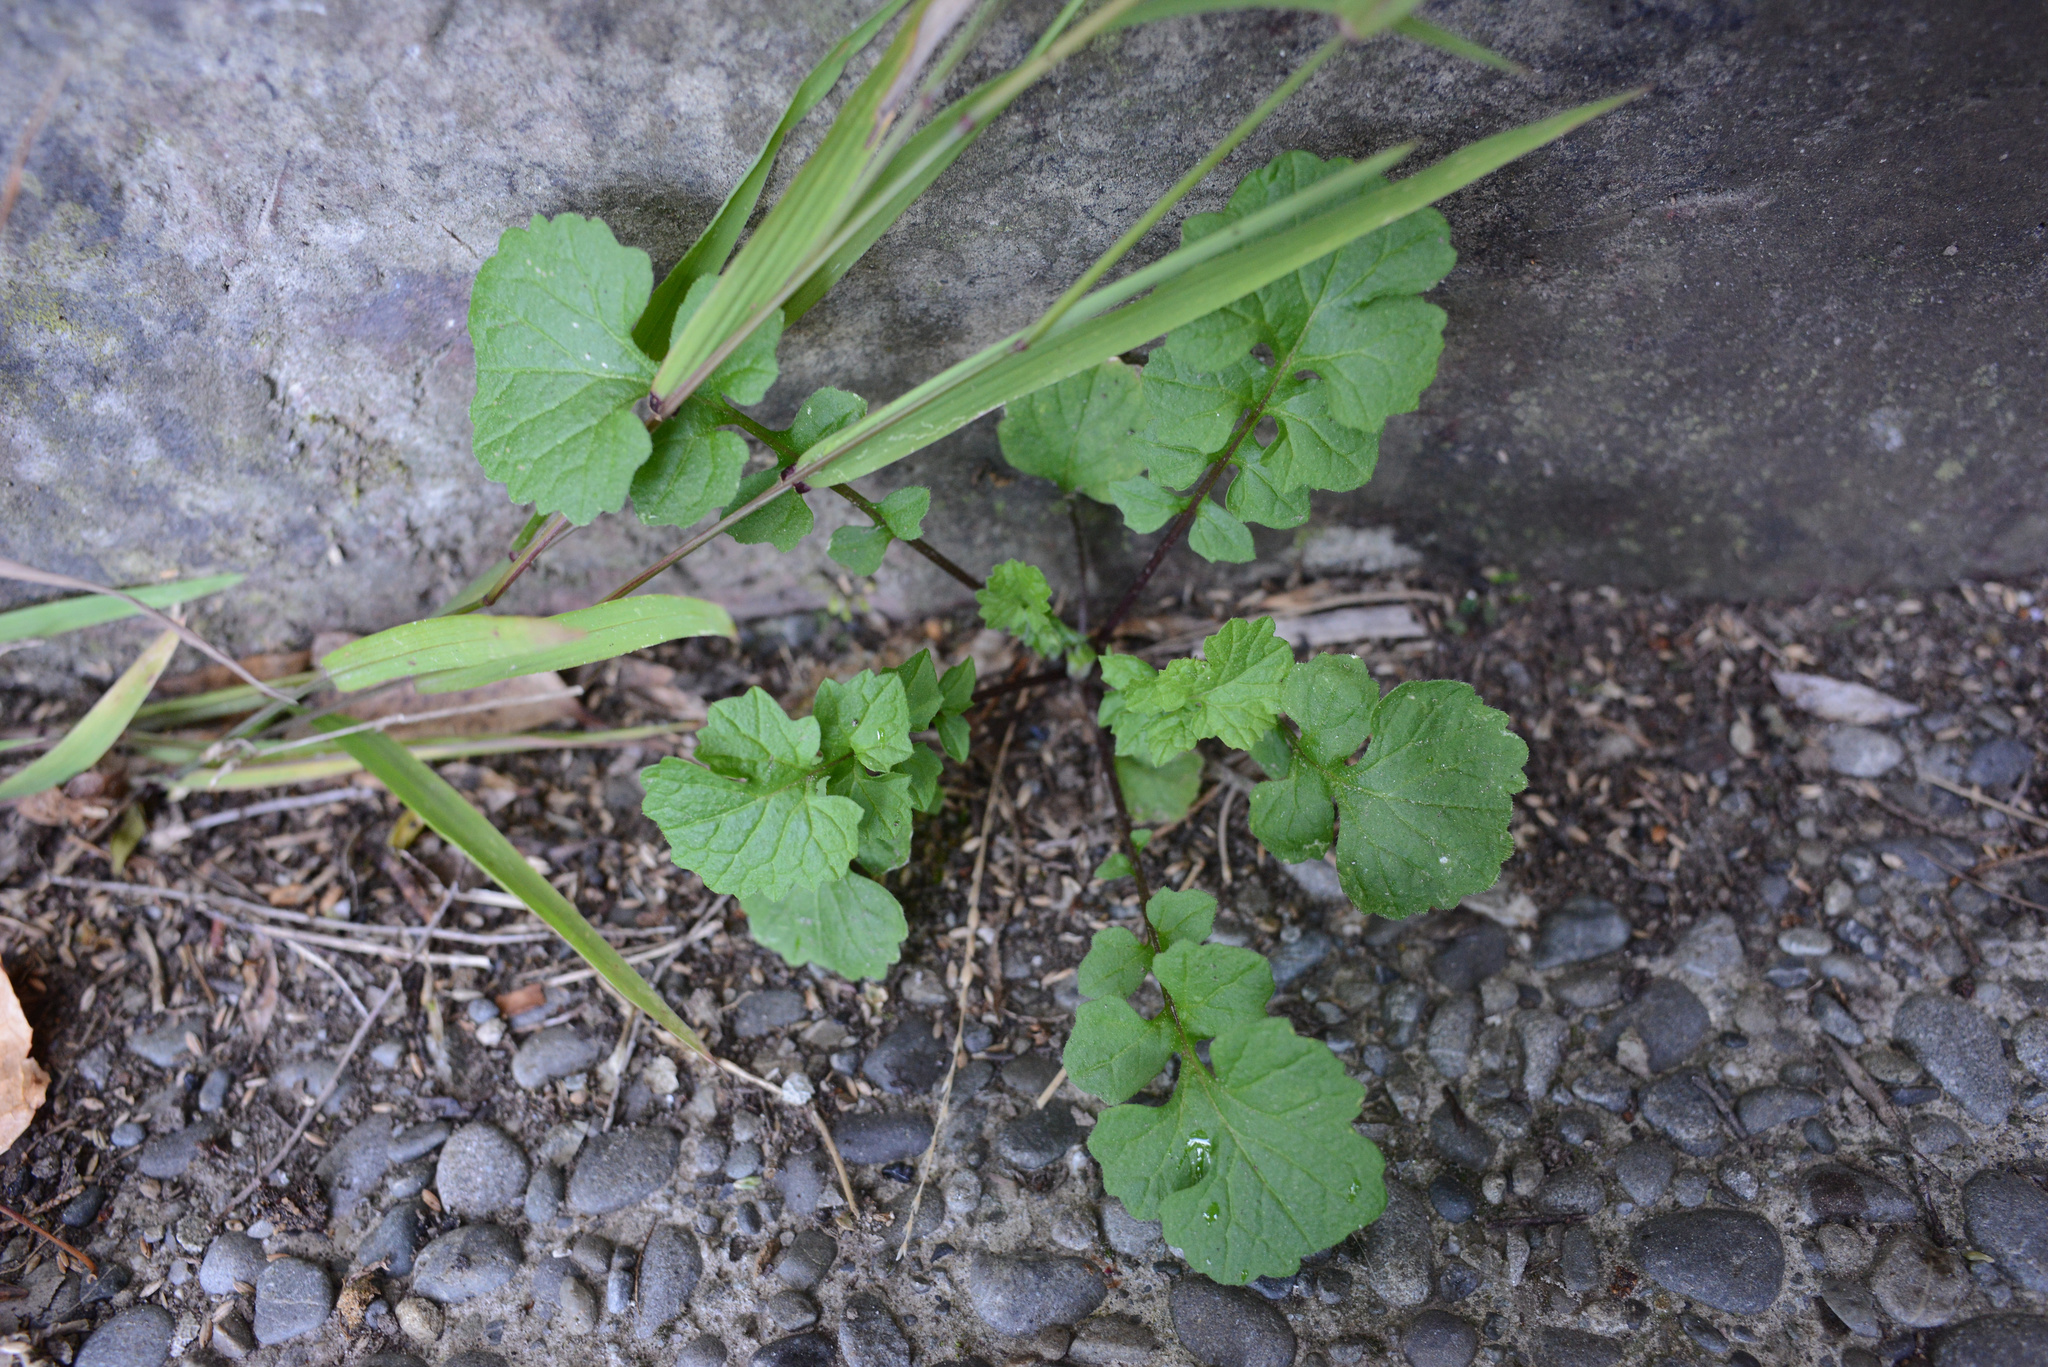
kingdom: Plantae
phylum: Tracheophyta
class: Magnoliopsida
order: Brassicales
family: Brassicaceae
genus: Sisymbrium
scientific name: Sisymbrium officinale
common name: Hedge mustard
